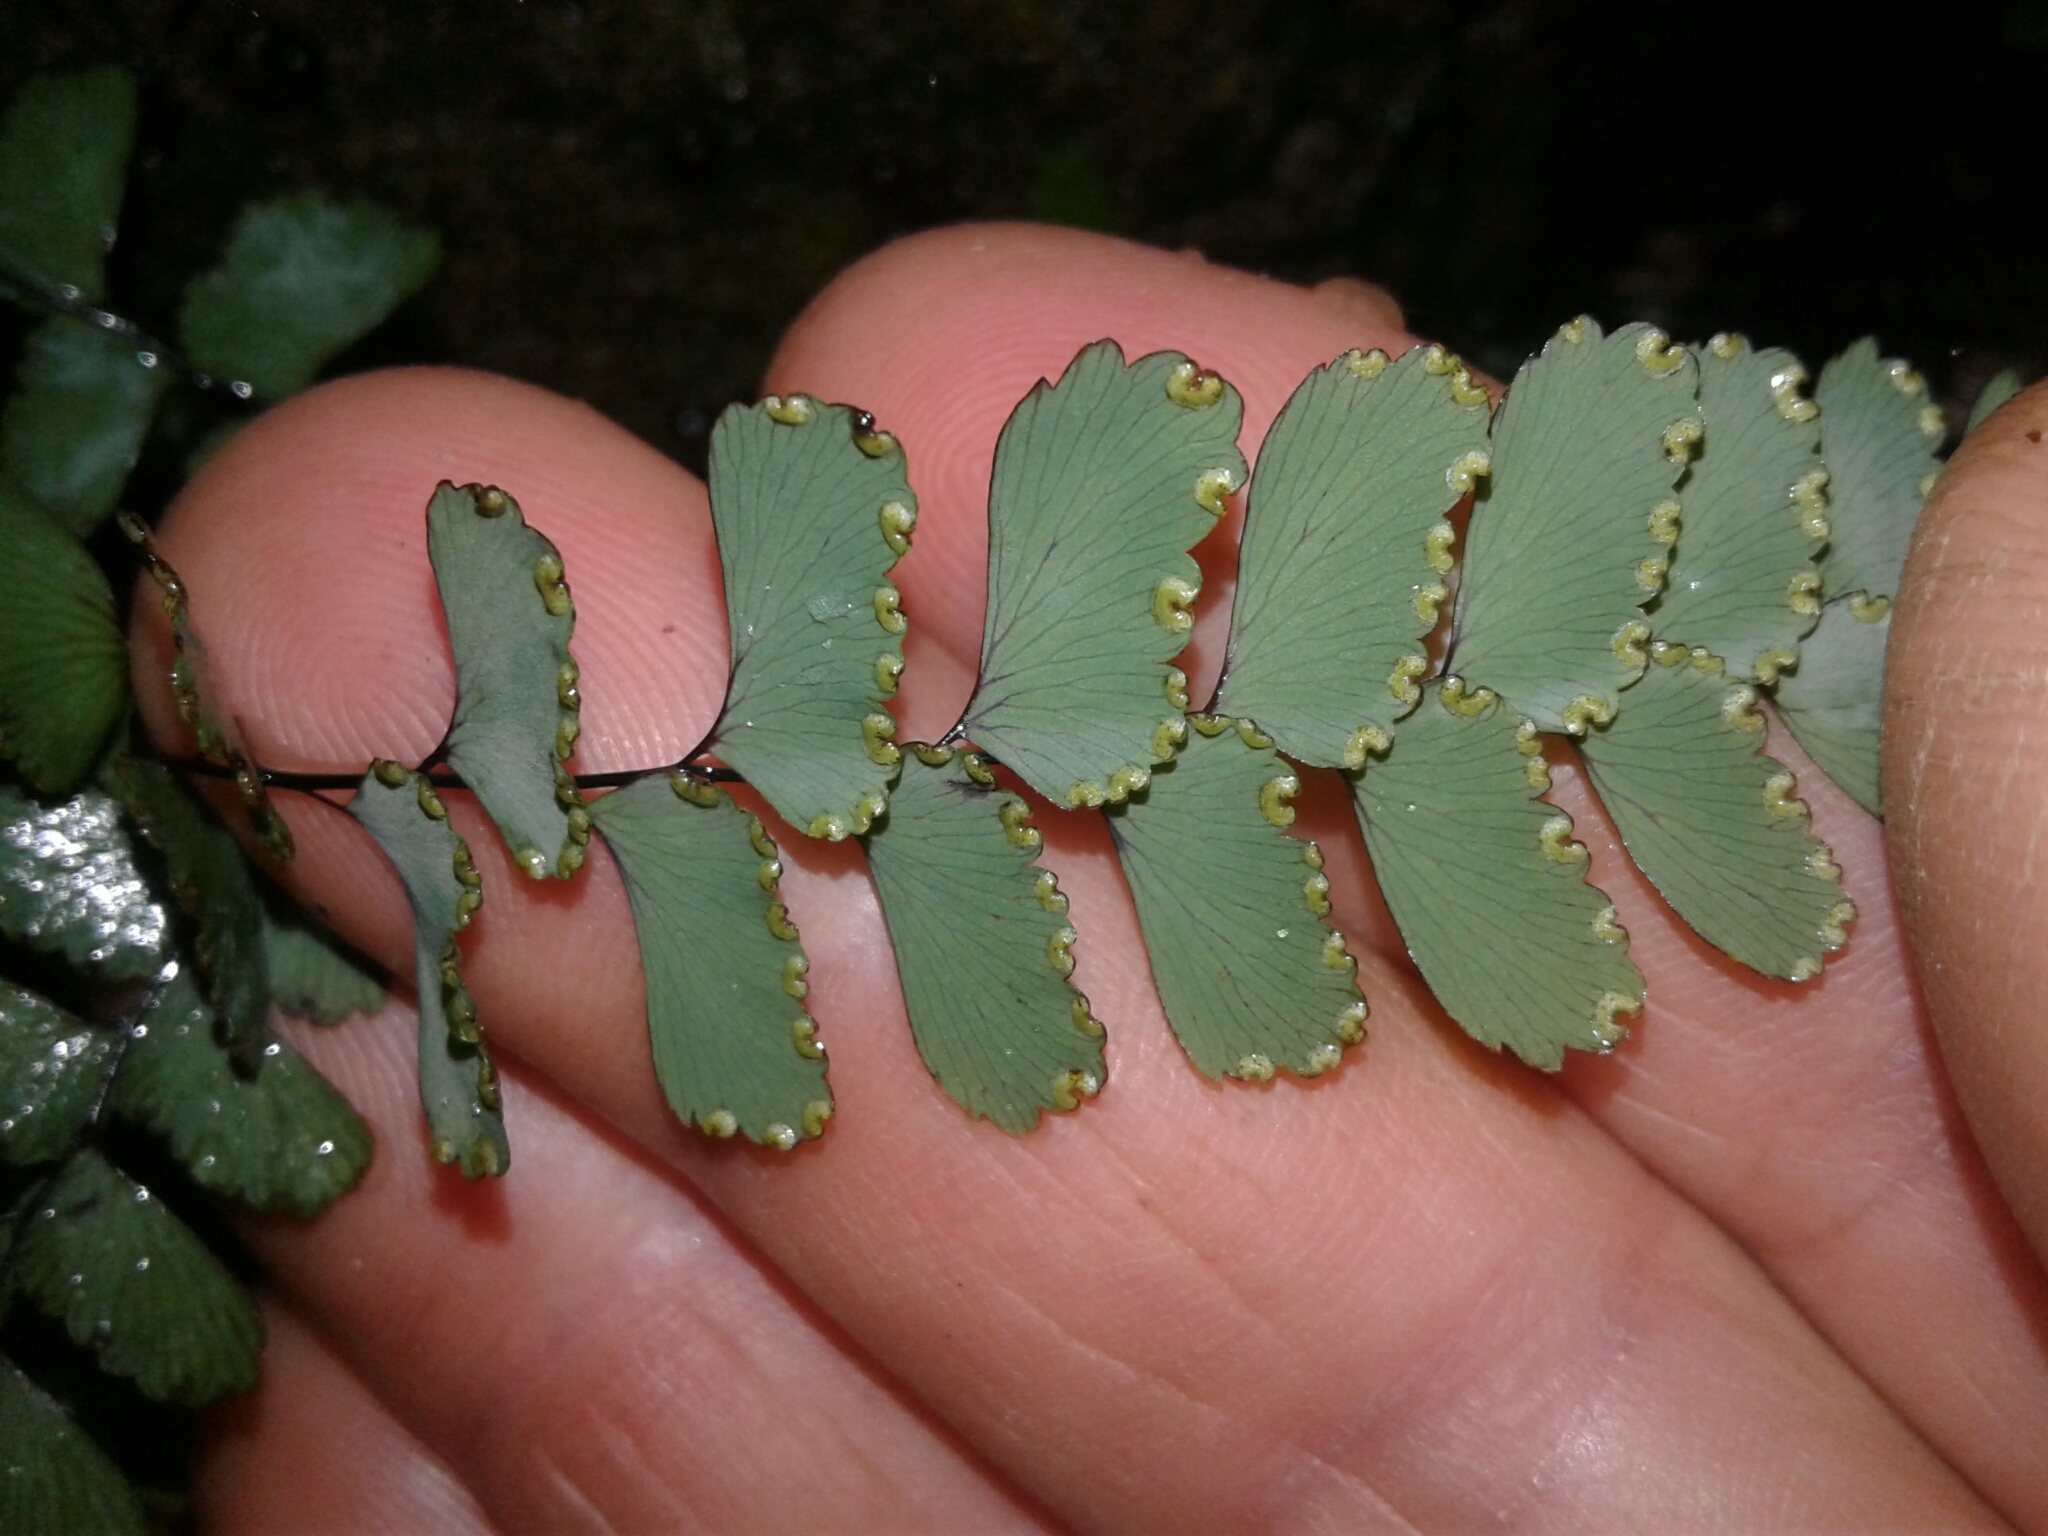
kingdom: Plantae
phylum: Tracheophyta
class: Polypodiopsida
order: Polypodiales
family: Pteridaceae
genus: Adiantum
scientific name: Adiantum cunninghamii
